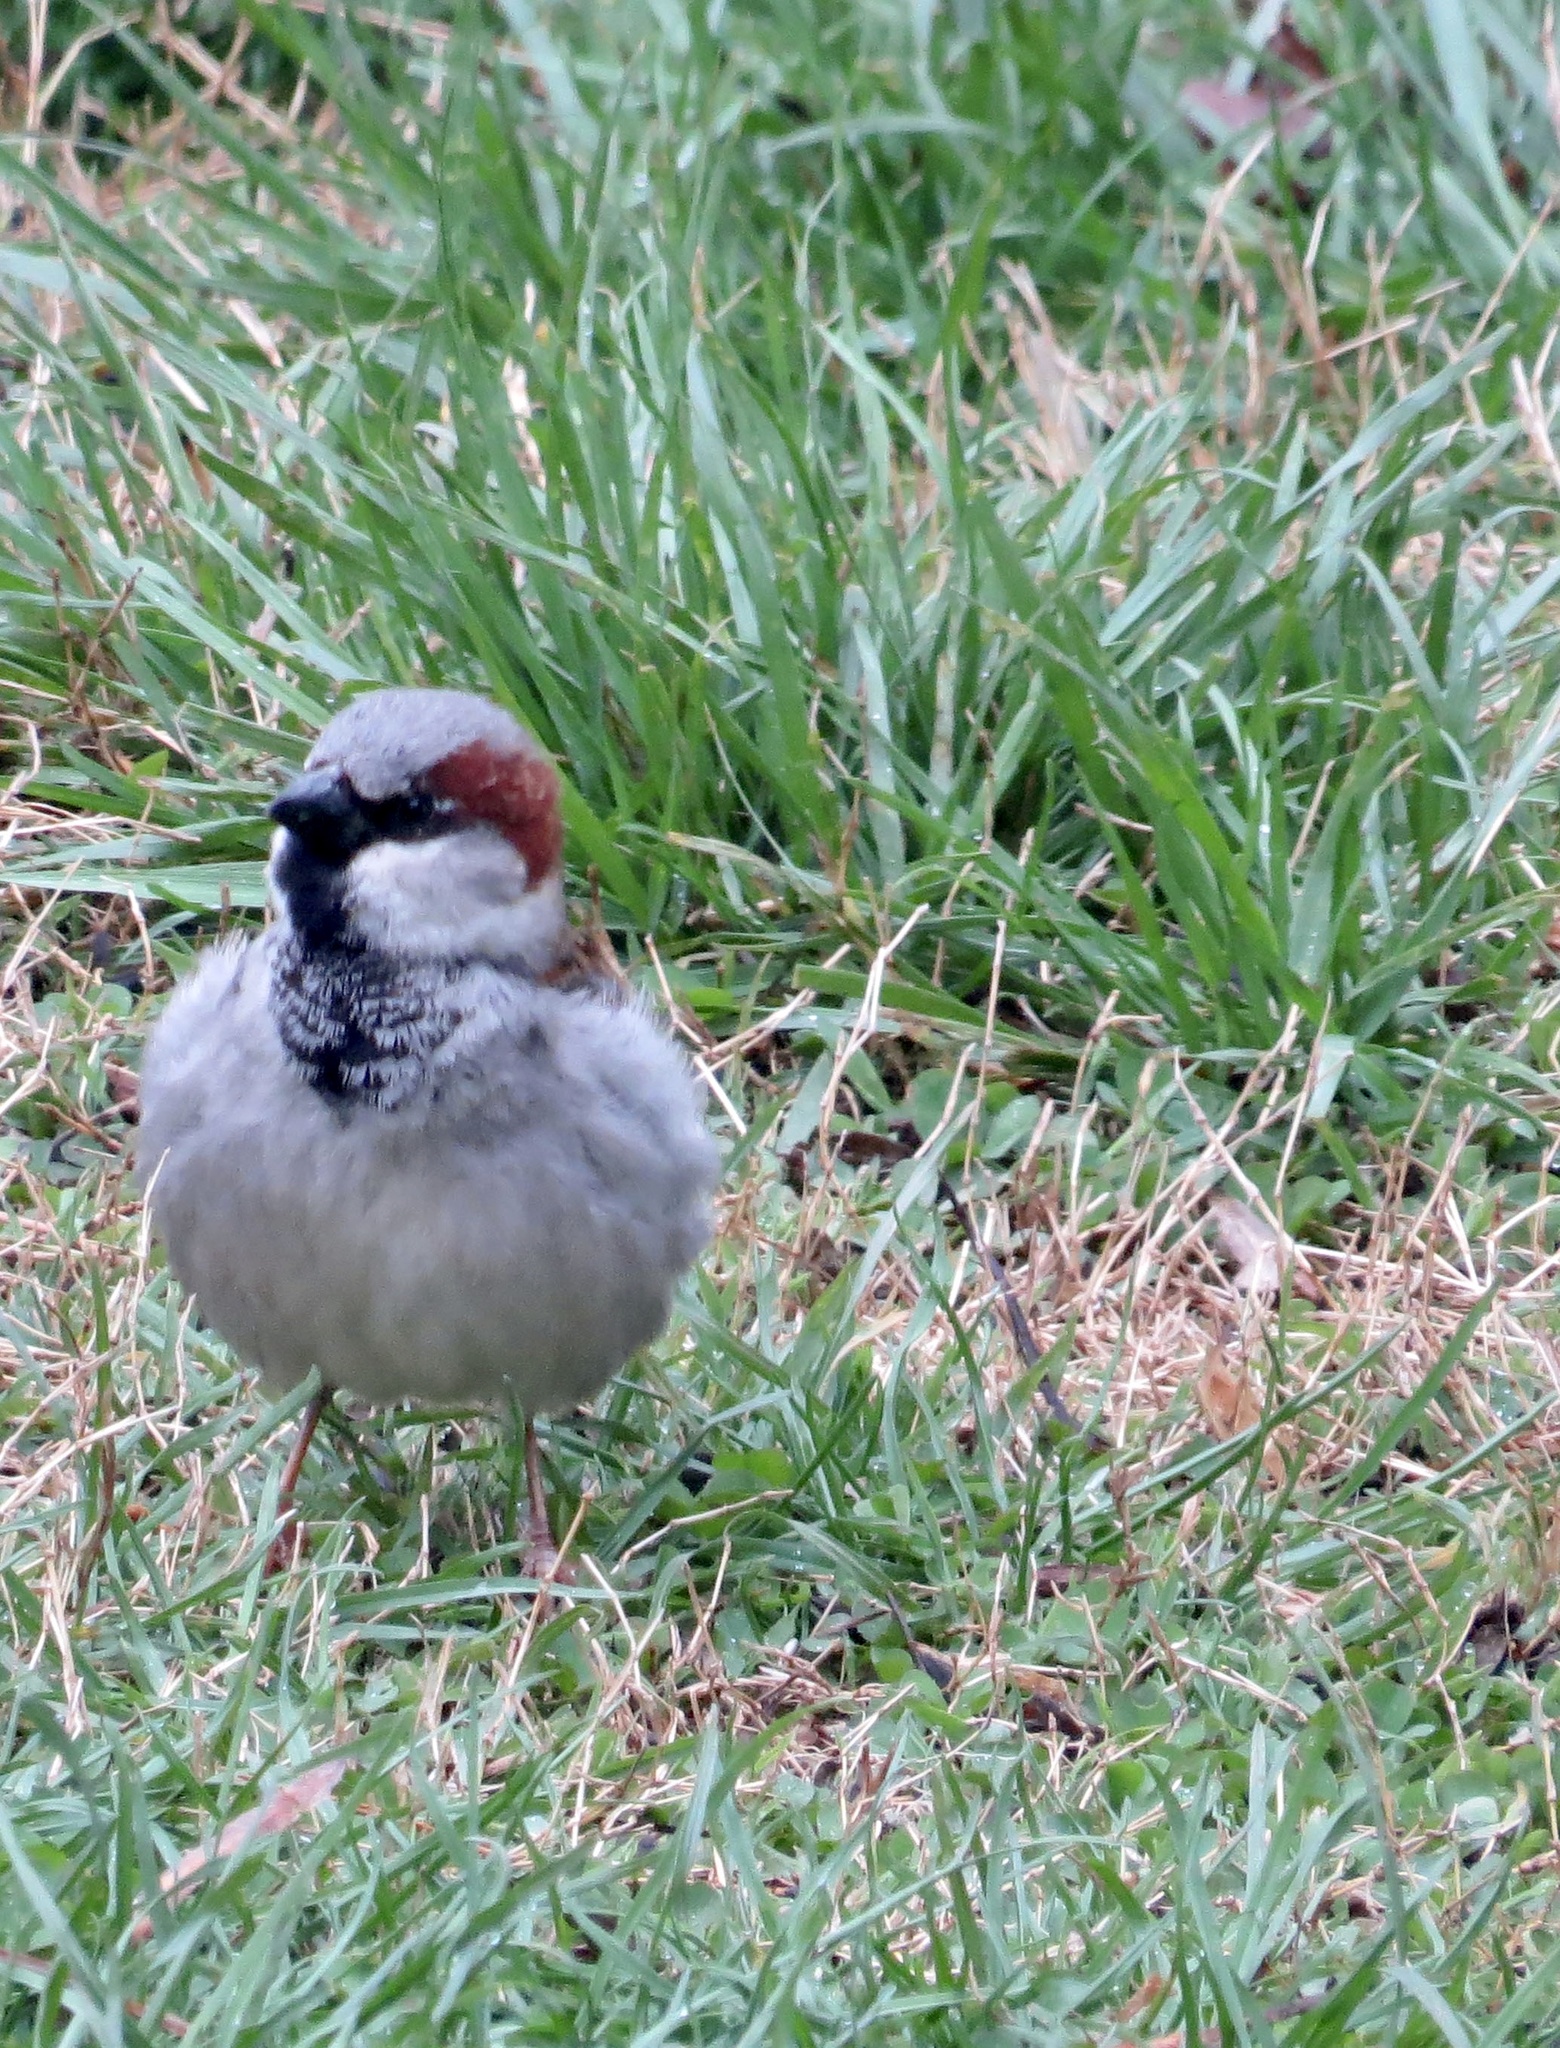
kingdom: Animalia
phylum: Chordata
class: Aves
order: Passeriformes
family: Passeridae
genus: Passer
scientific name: Passer domesticus
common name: House sparrow
